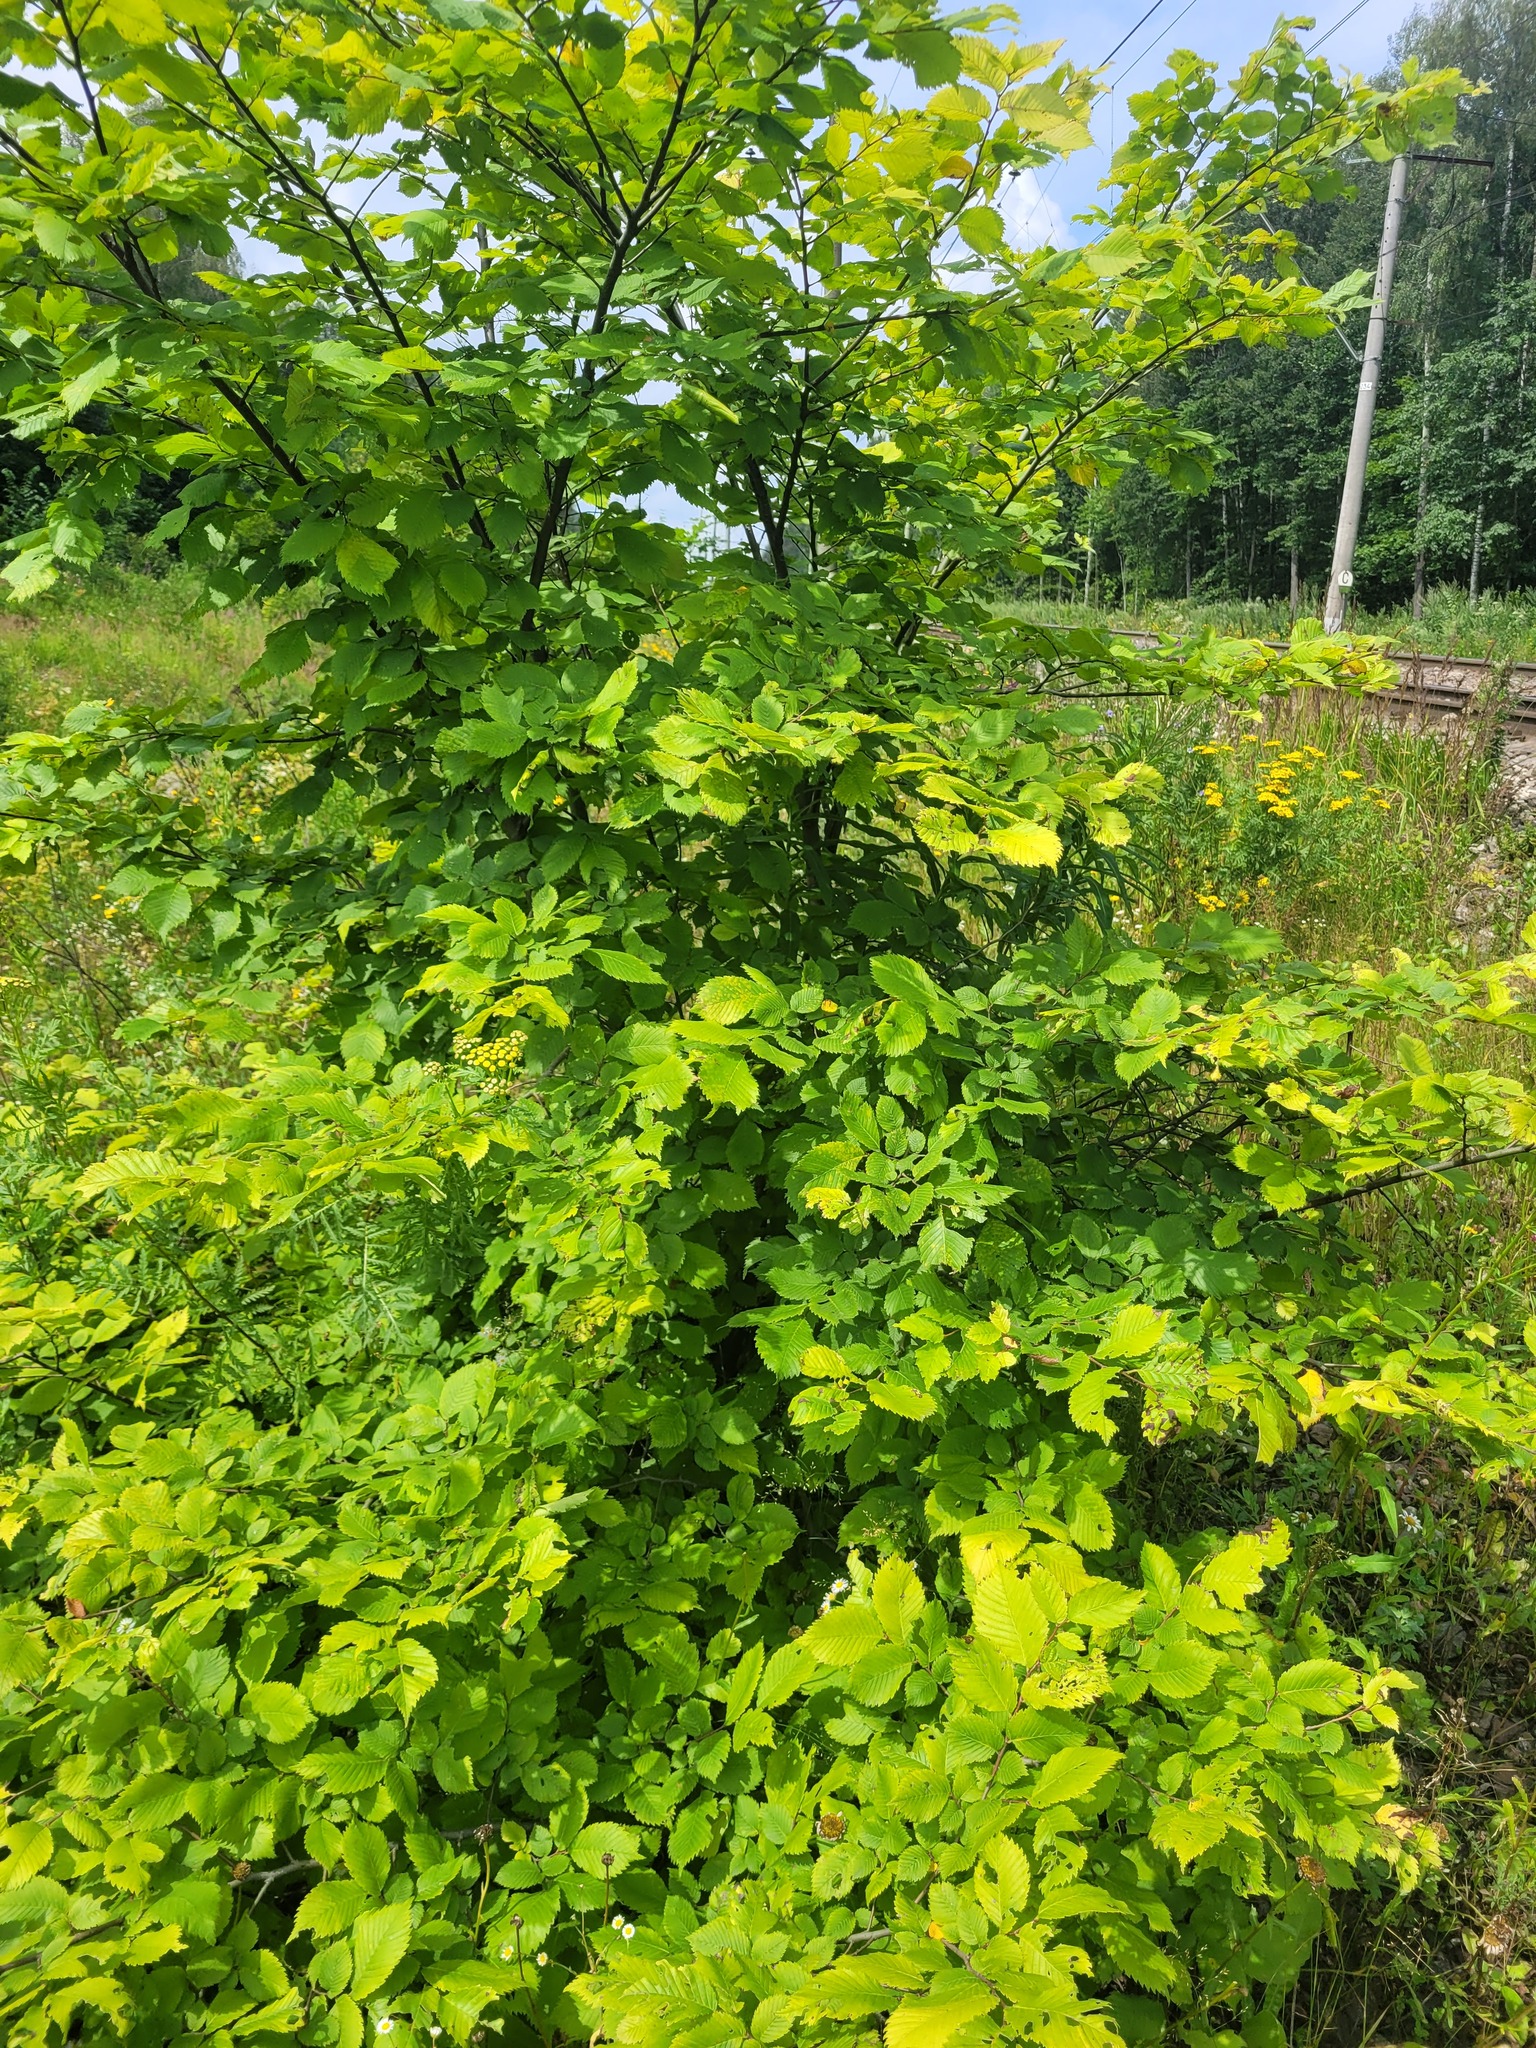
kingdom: Plantae
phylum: Tracheophyta
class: Magnoliopsida
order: Rosales
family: Ulmaceae
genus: Ulmus
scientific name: Ulmus laevis
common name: European white-elm
